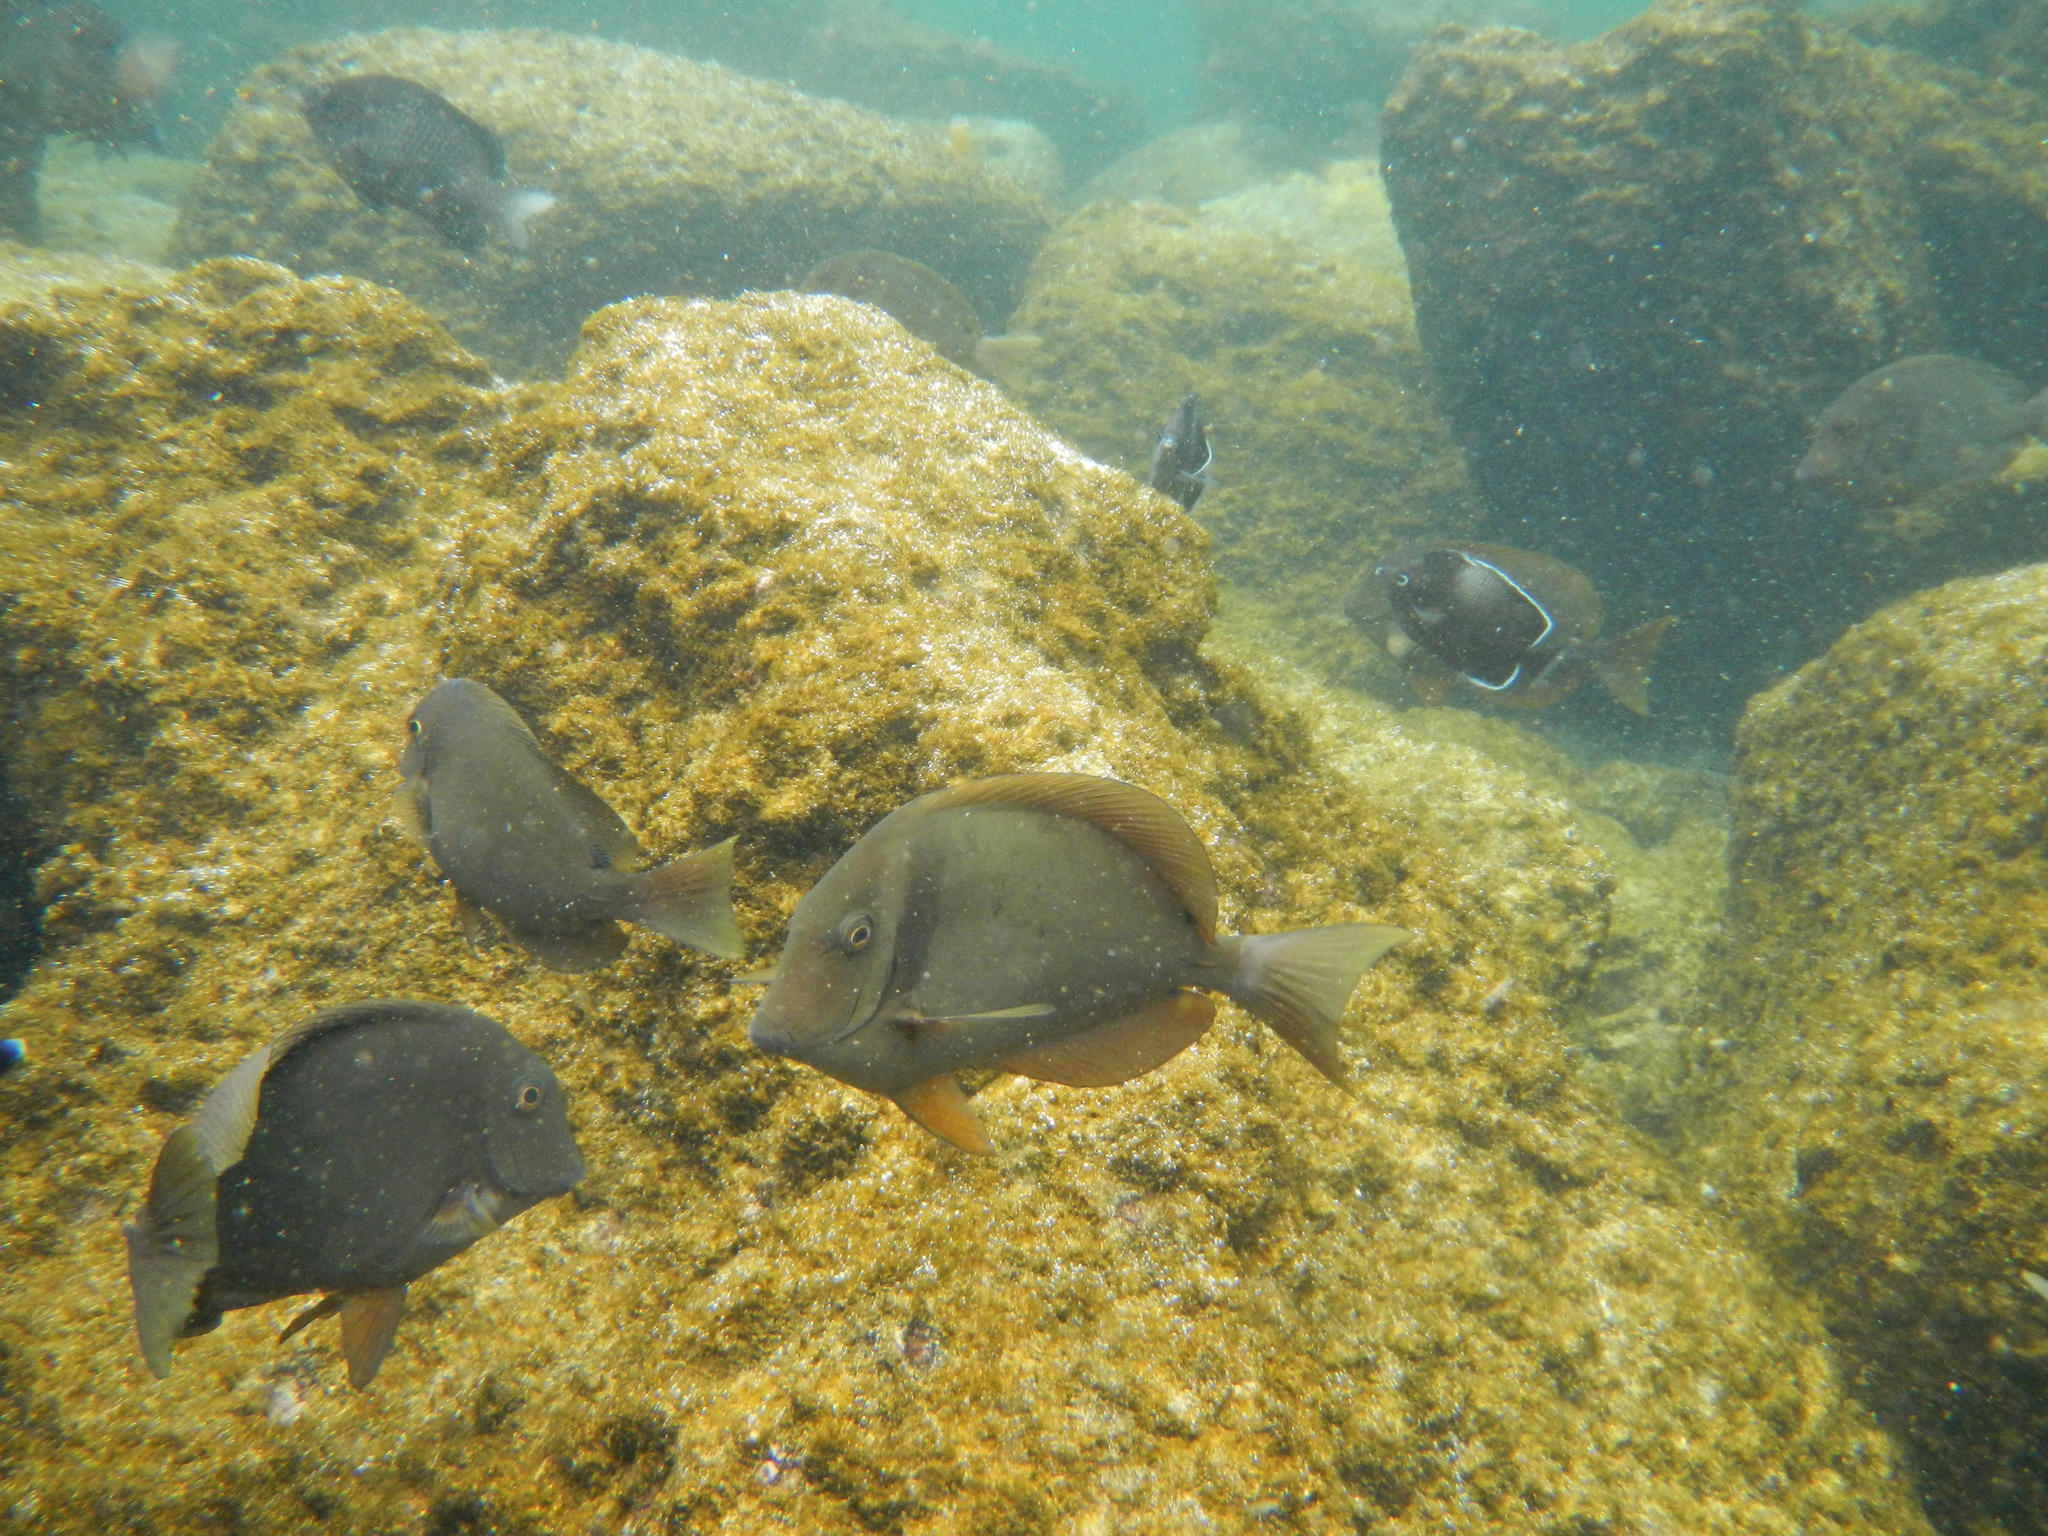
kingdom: Animalia
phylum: Chordata
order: Perciformes
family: Acanthuridae
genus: Acanthurus
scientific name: Acanthurus leucopareius
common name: Head-band surgeonfish
